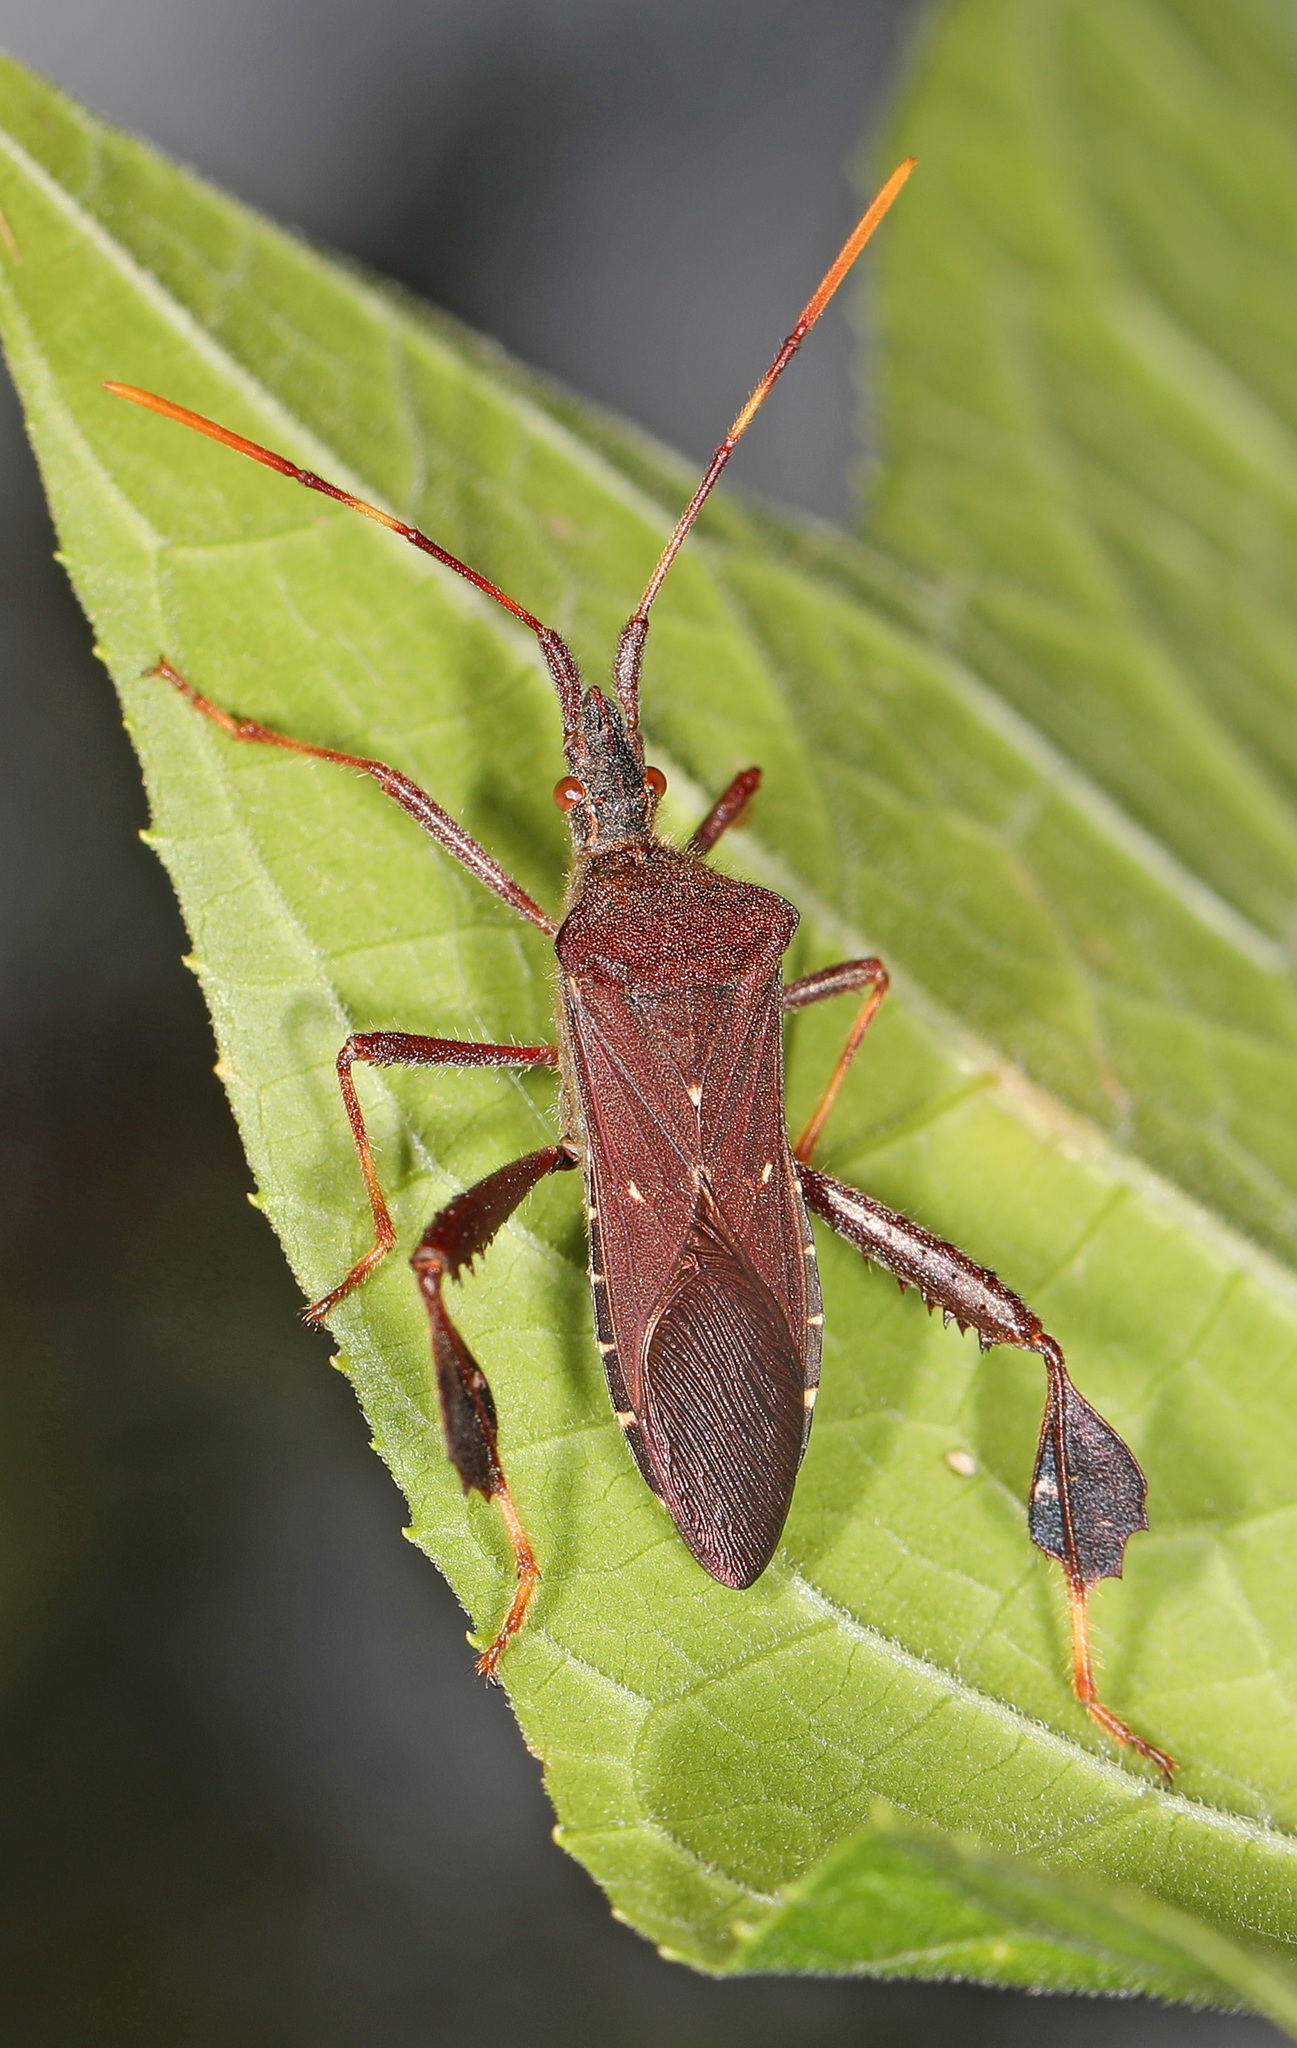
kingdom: Animalia
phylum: Arthropoda
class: Insecta
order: Hemiptera
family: Coreidae
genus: Leptoglossus
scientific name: Leptoglossus oppositus
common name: Northern leaf-footed bug
